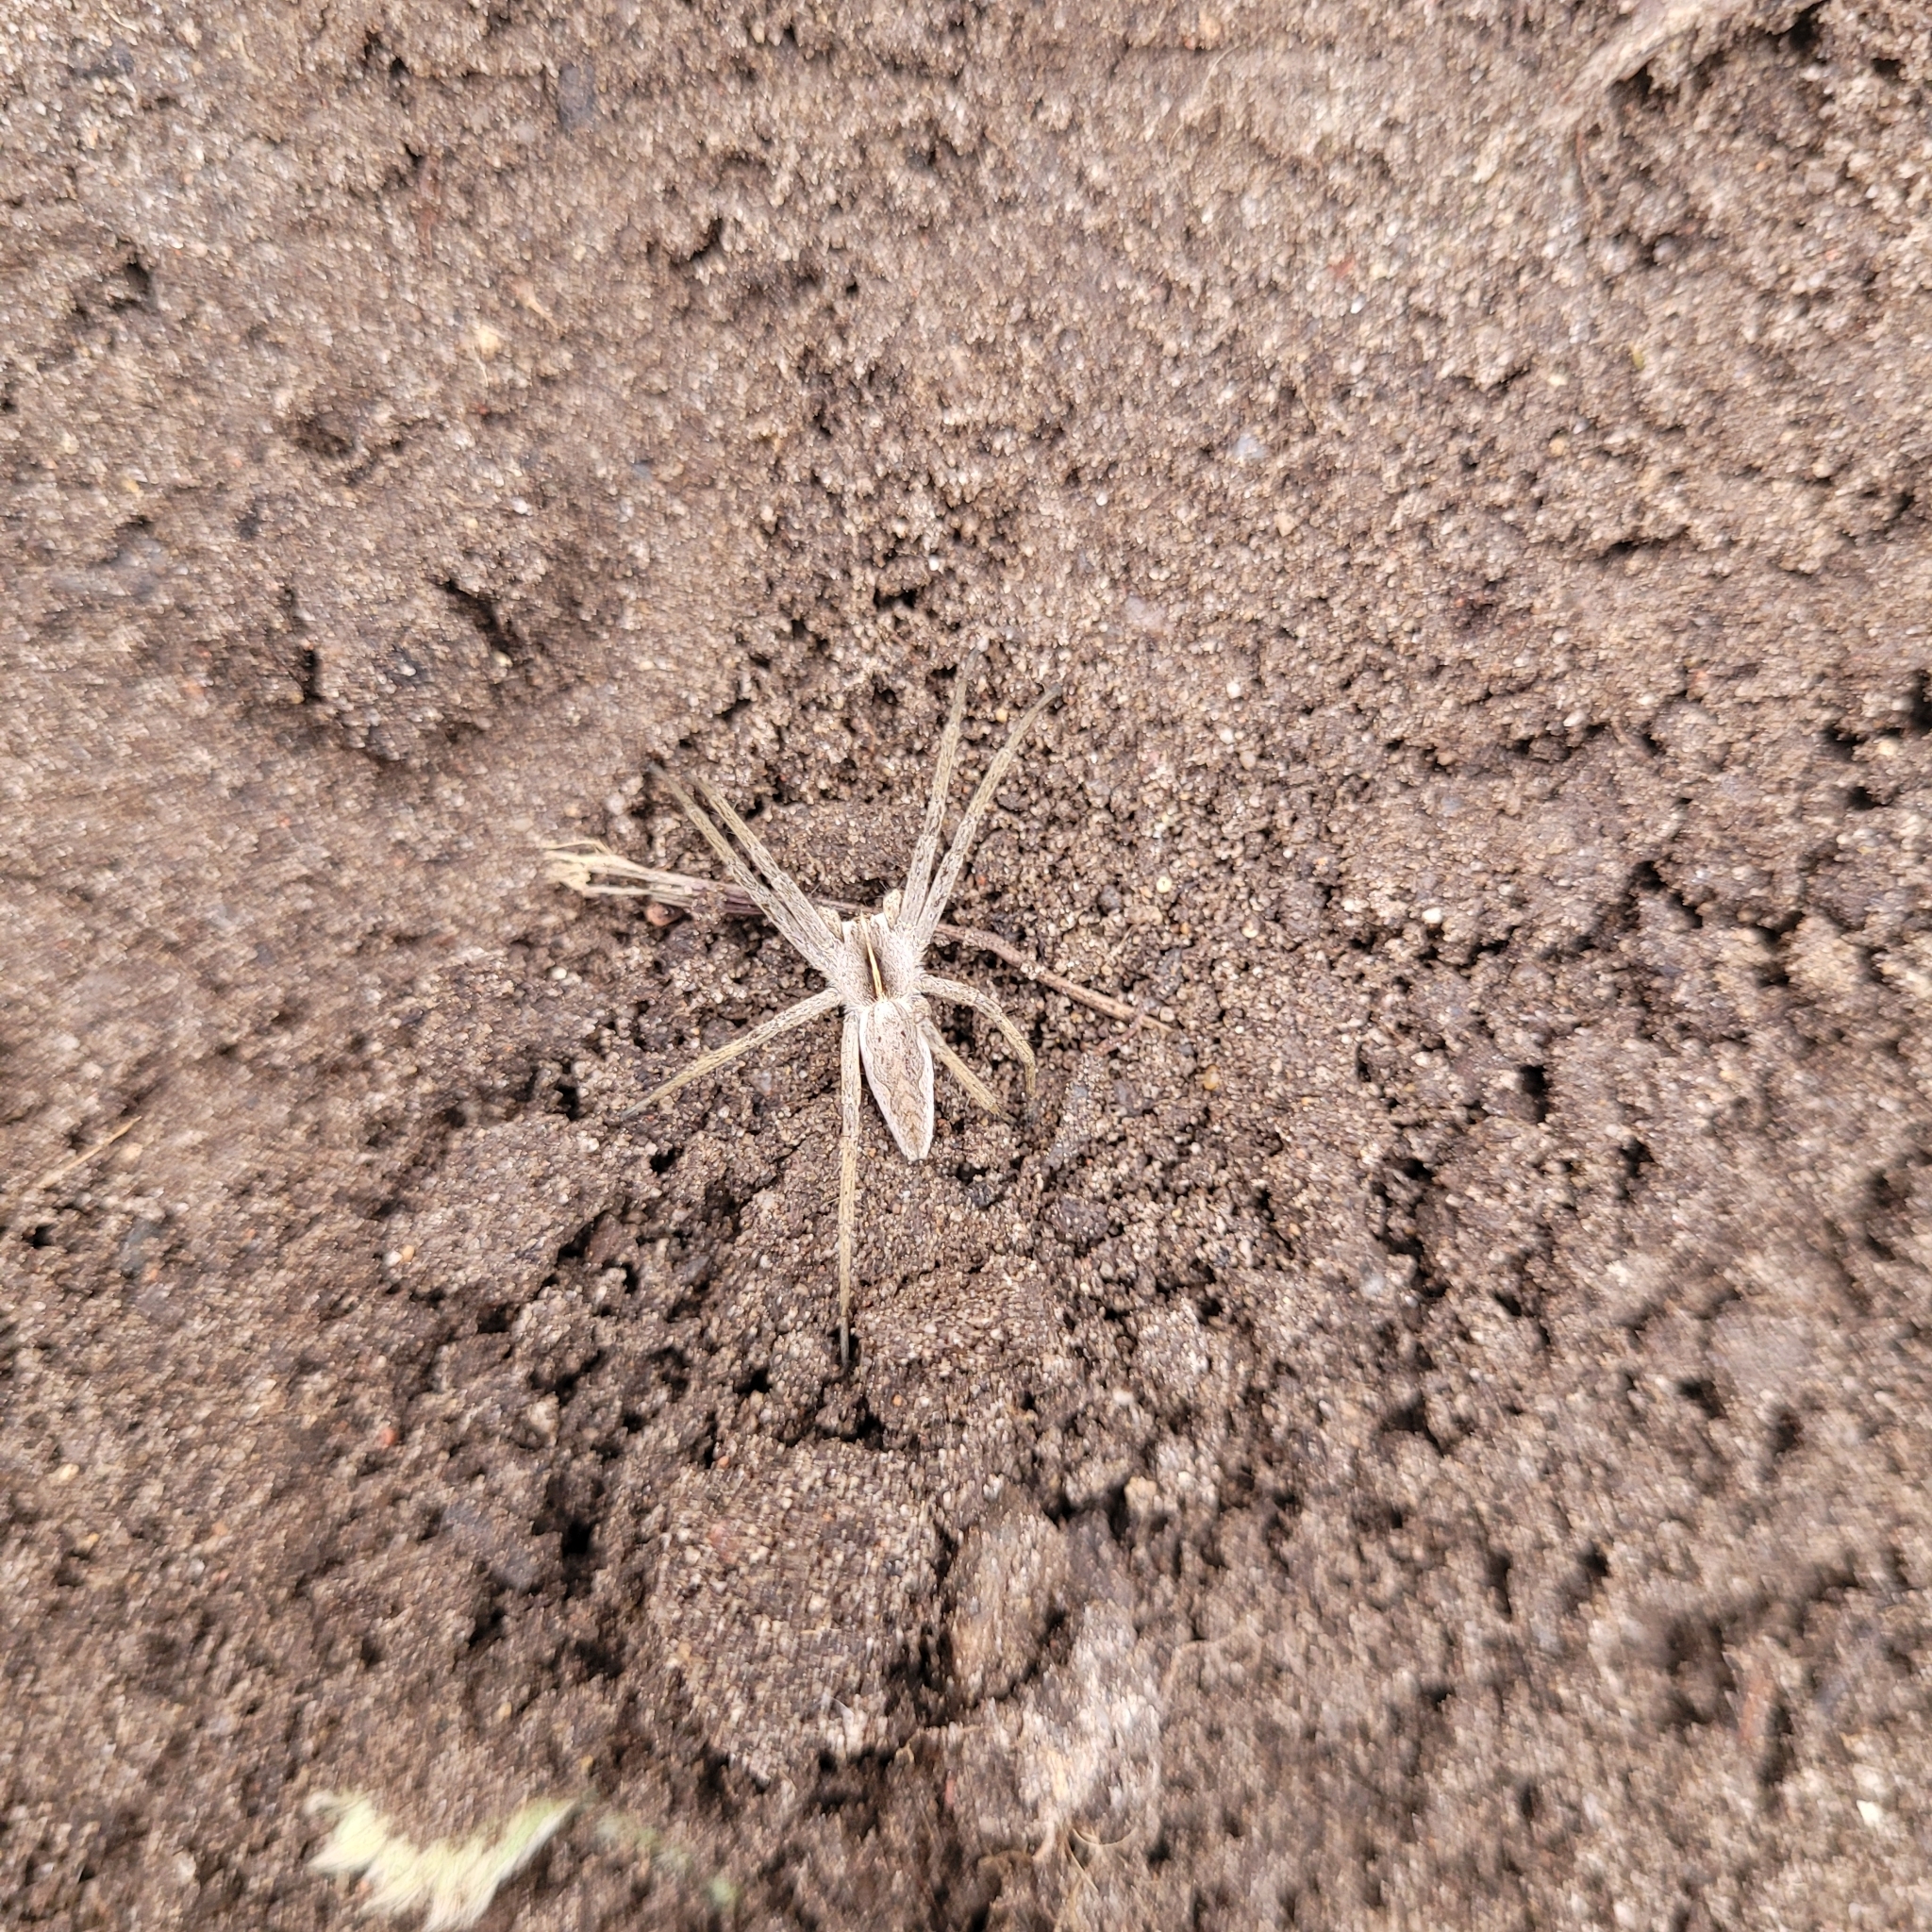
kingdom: Animalia
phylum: Arthropoda
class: Arachnida
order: Araneae
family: Pisauridae
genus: Pisaura
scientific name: Pisaura mirabilis
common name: Tent spider
